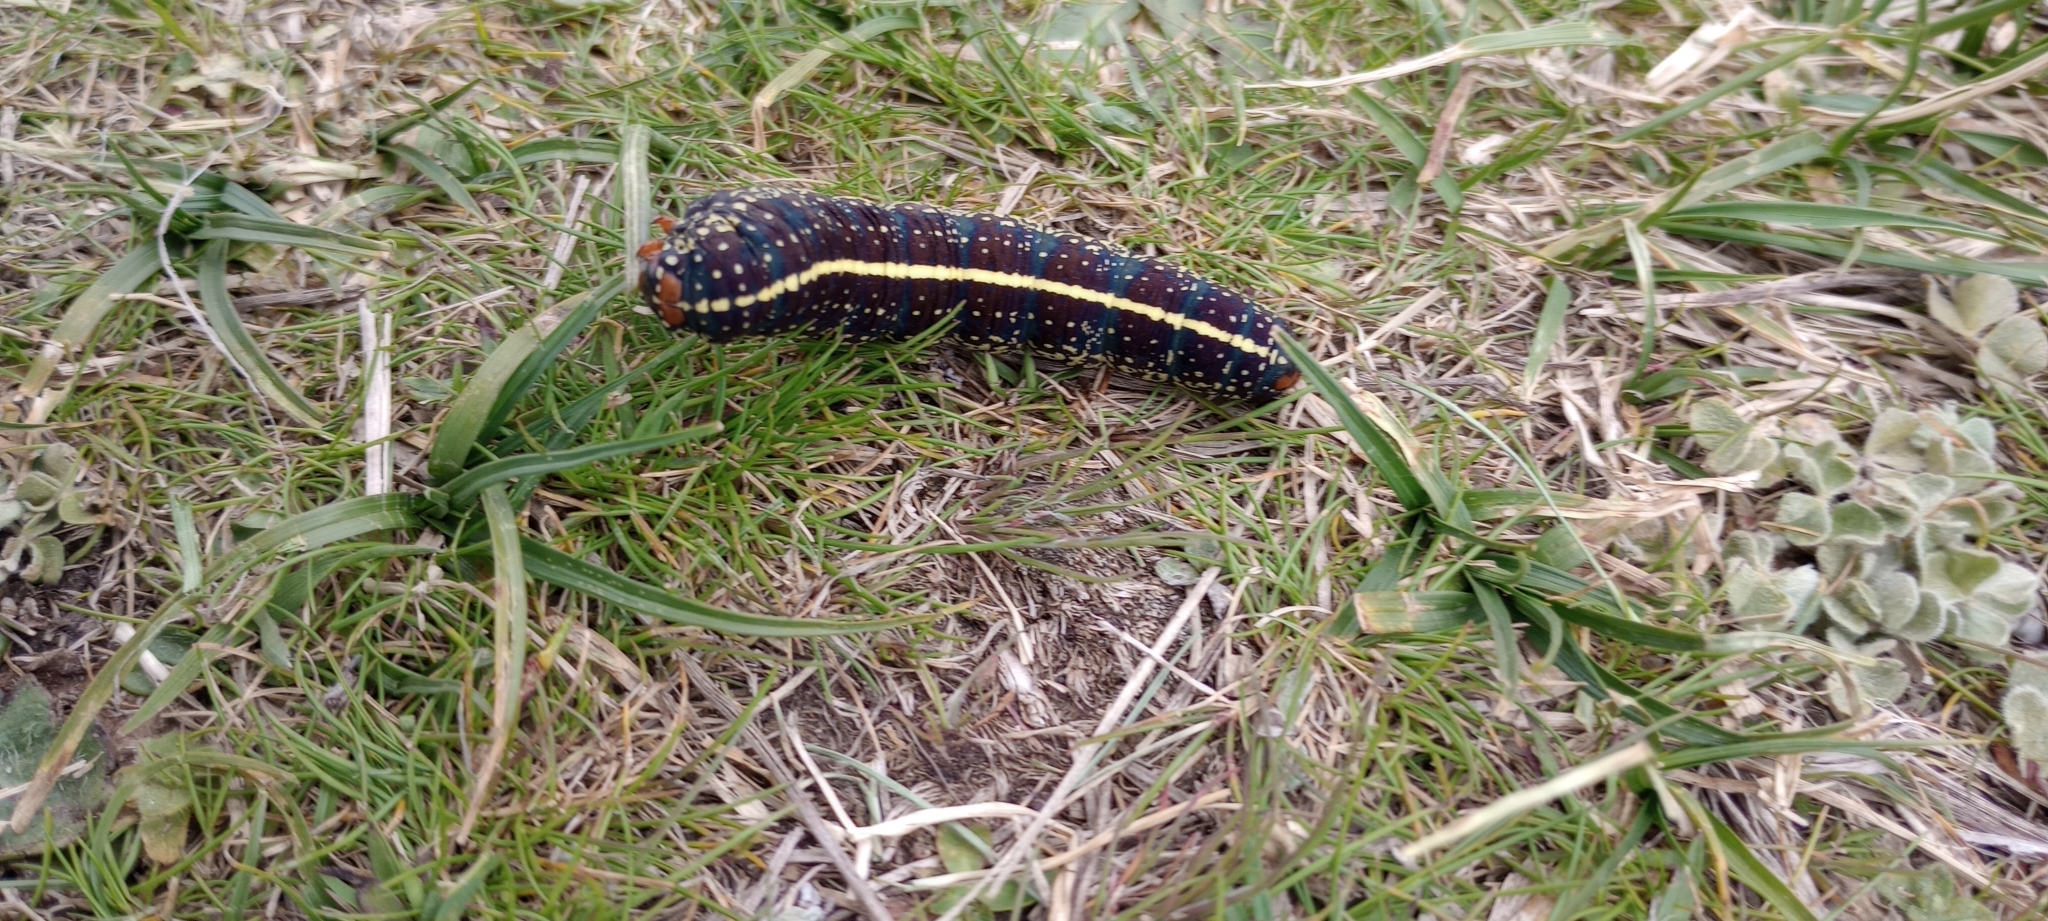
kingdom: Animalia
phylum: Arthropoda
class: Insecta
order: Lepidoptera
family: Noctuidae
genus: Chlanidophora
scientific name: Chlanidophora
